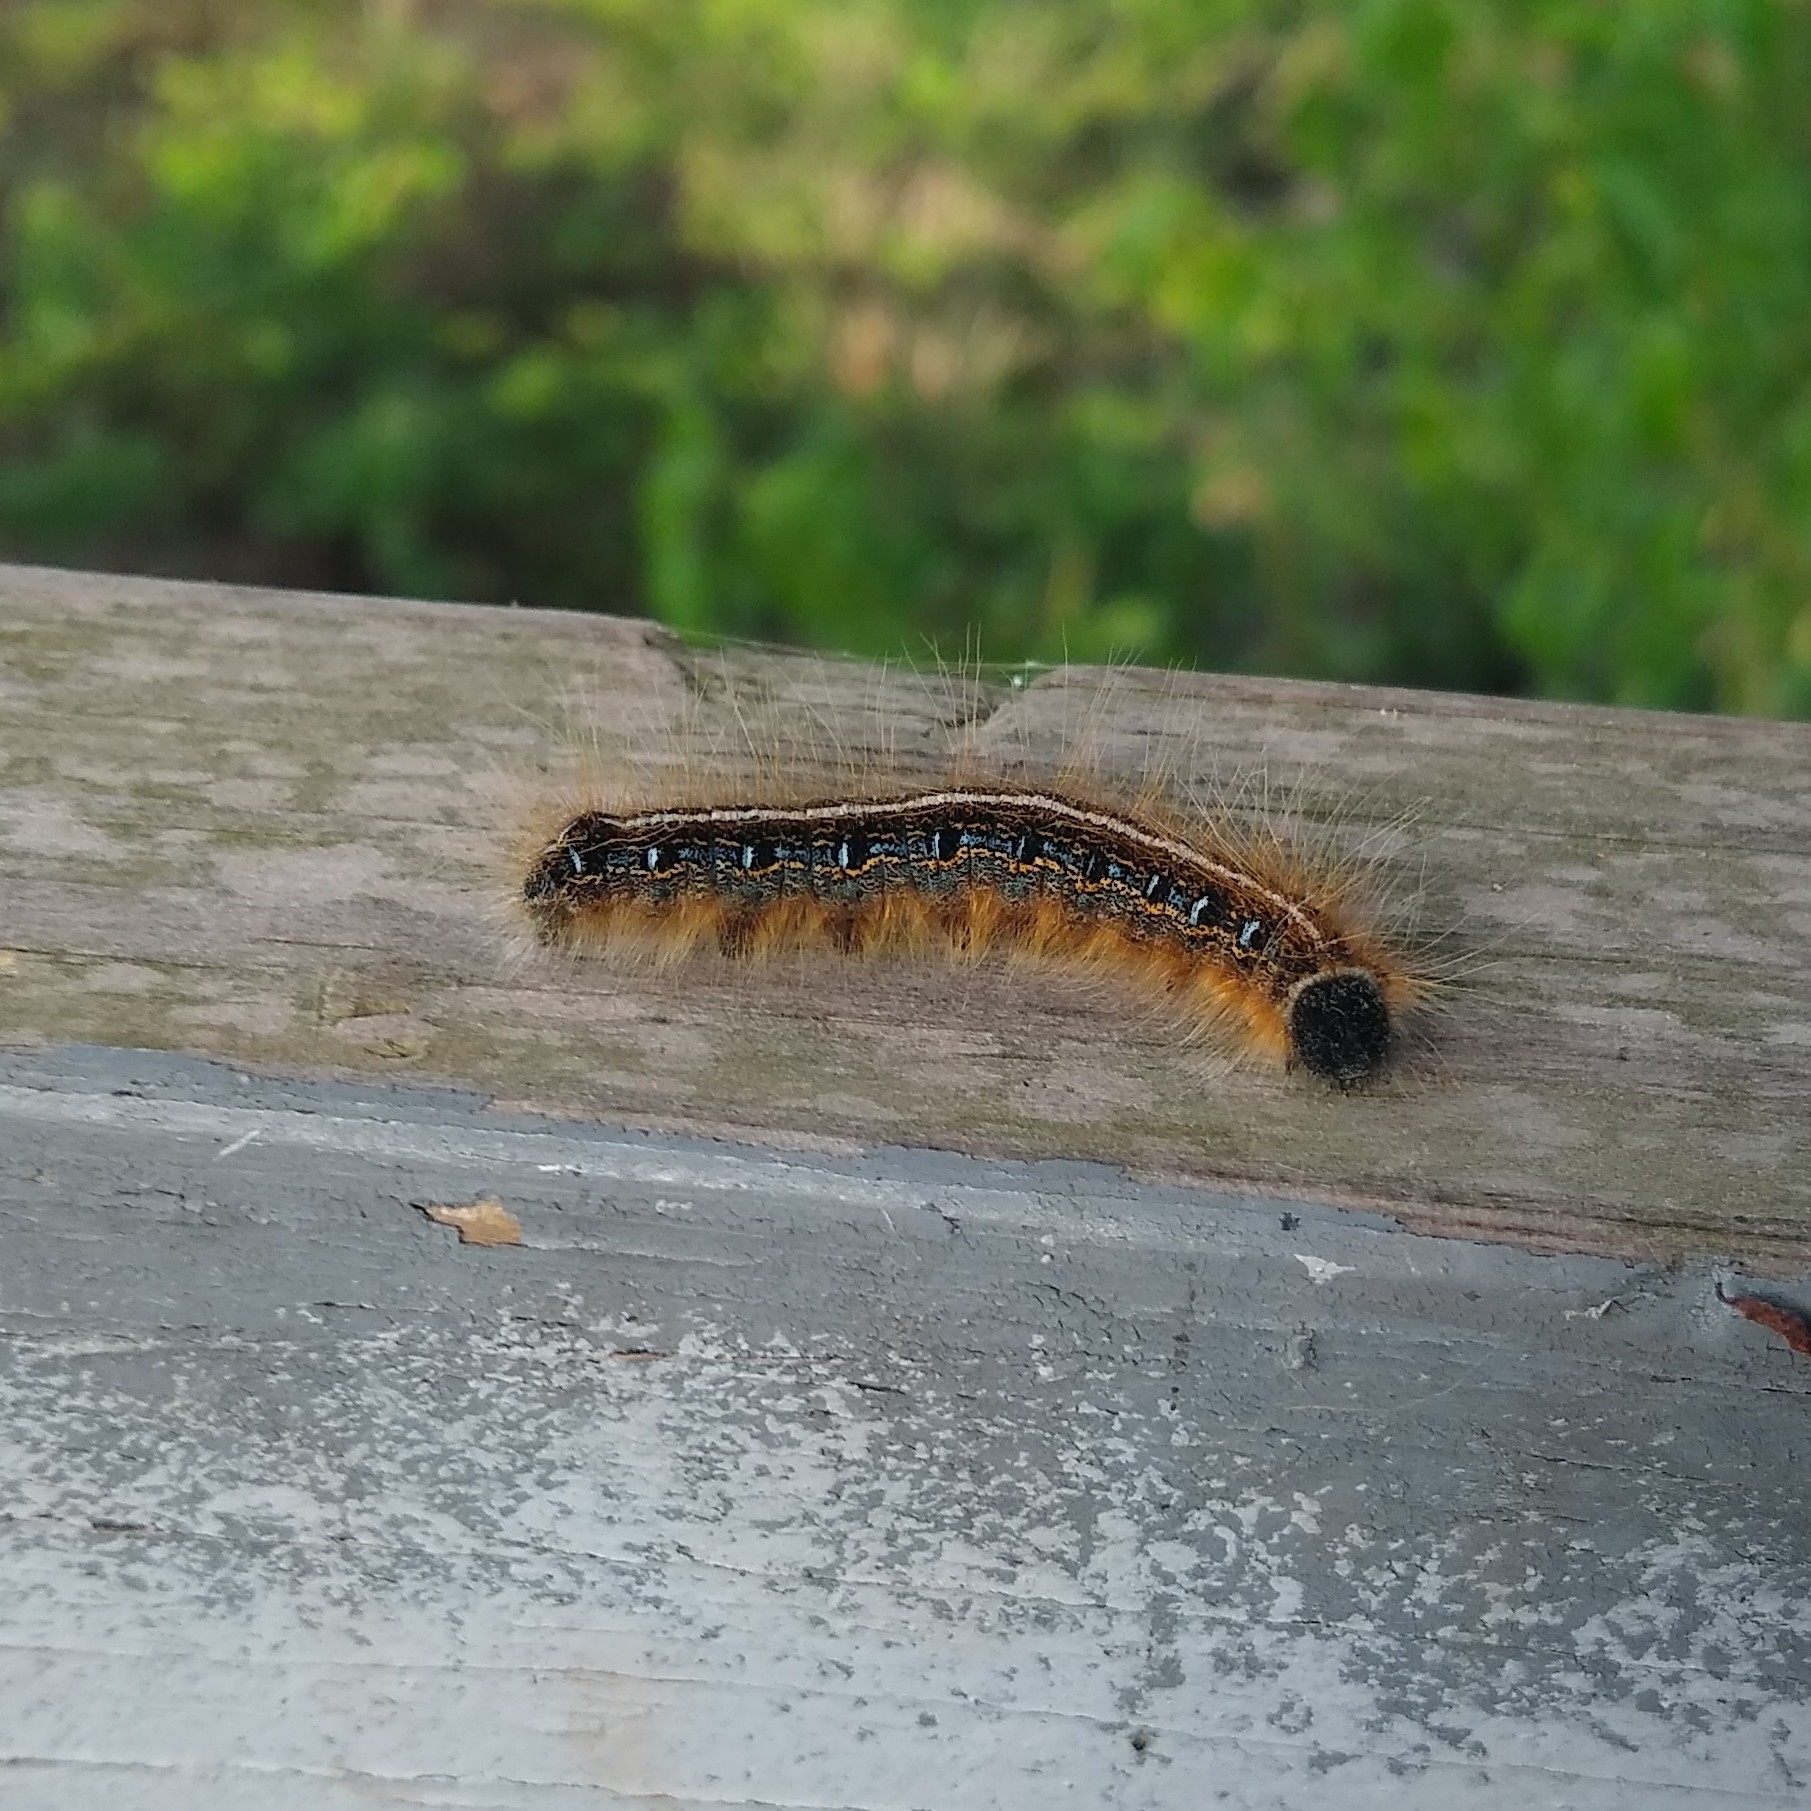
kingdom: Animalia
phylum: Arthropoda
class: Insecta
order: Lepidoptera
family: Lasiocampidae
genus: Malacosoma
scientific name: Malacosoma americana
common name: Eastern tent caterpillar moth
